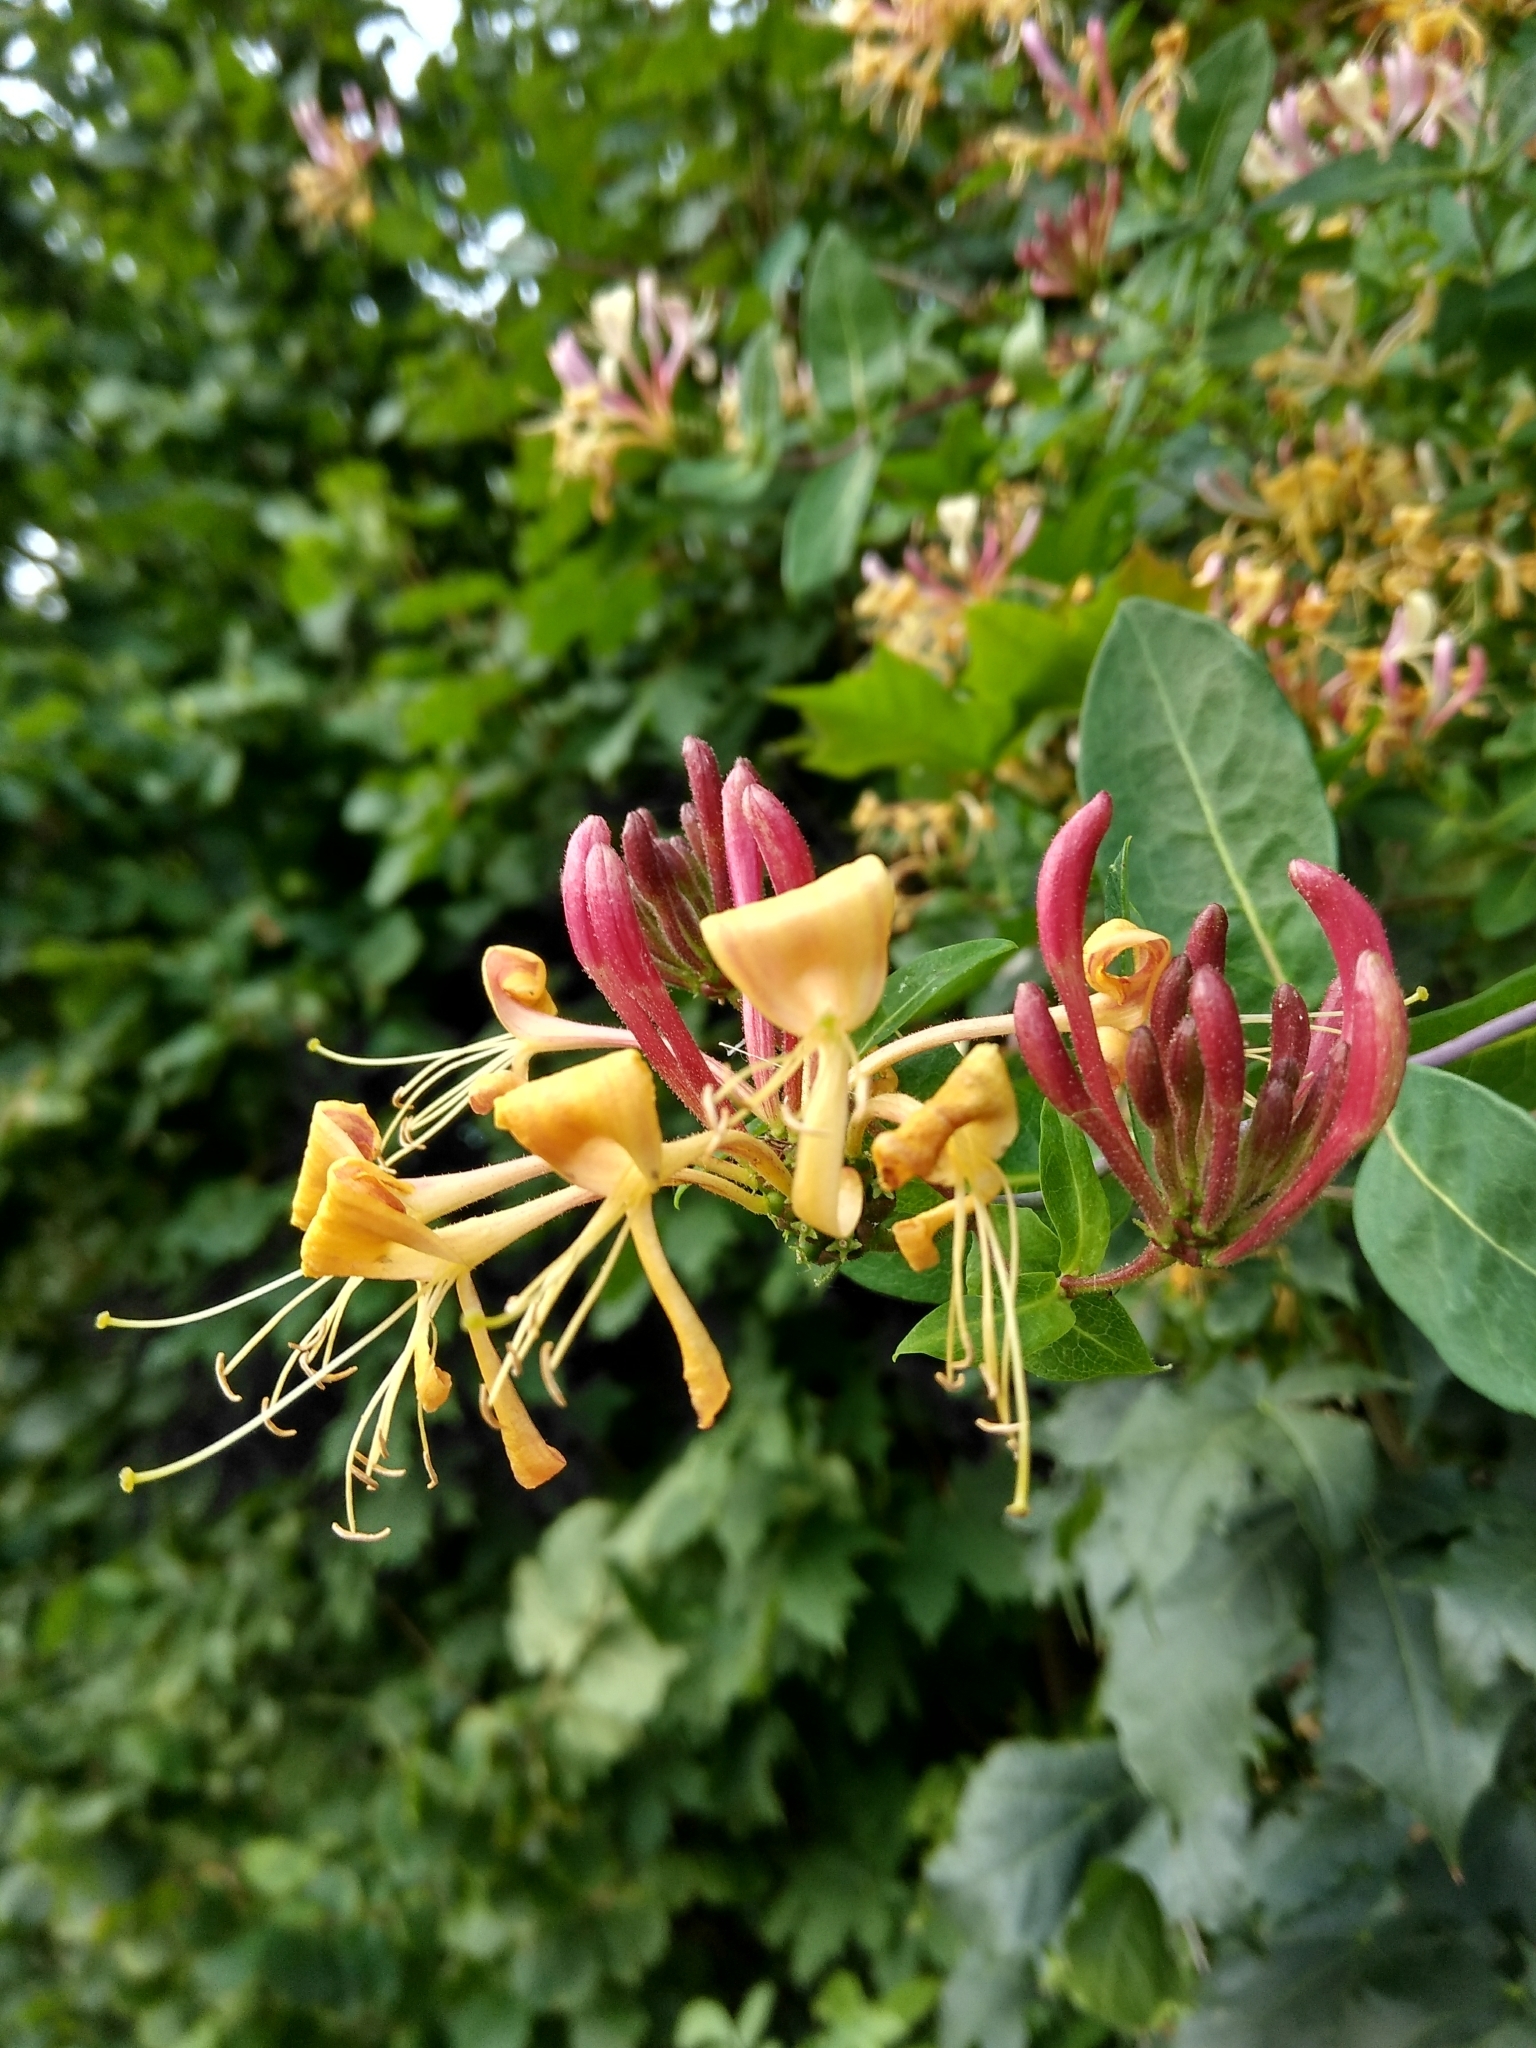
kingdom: Plantae
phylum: Tracheophyta
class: Magnoliopsida
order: Dipsacales
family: Caprifoliaceae
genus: Lonicera
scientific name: Lonicera periclymenum
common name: European honeysuckle
